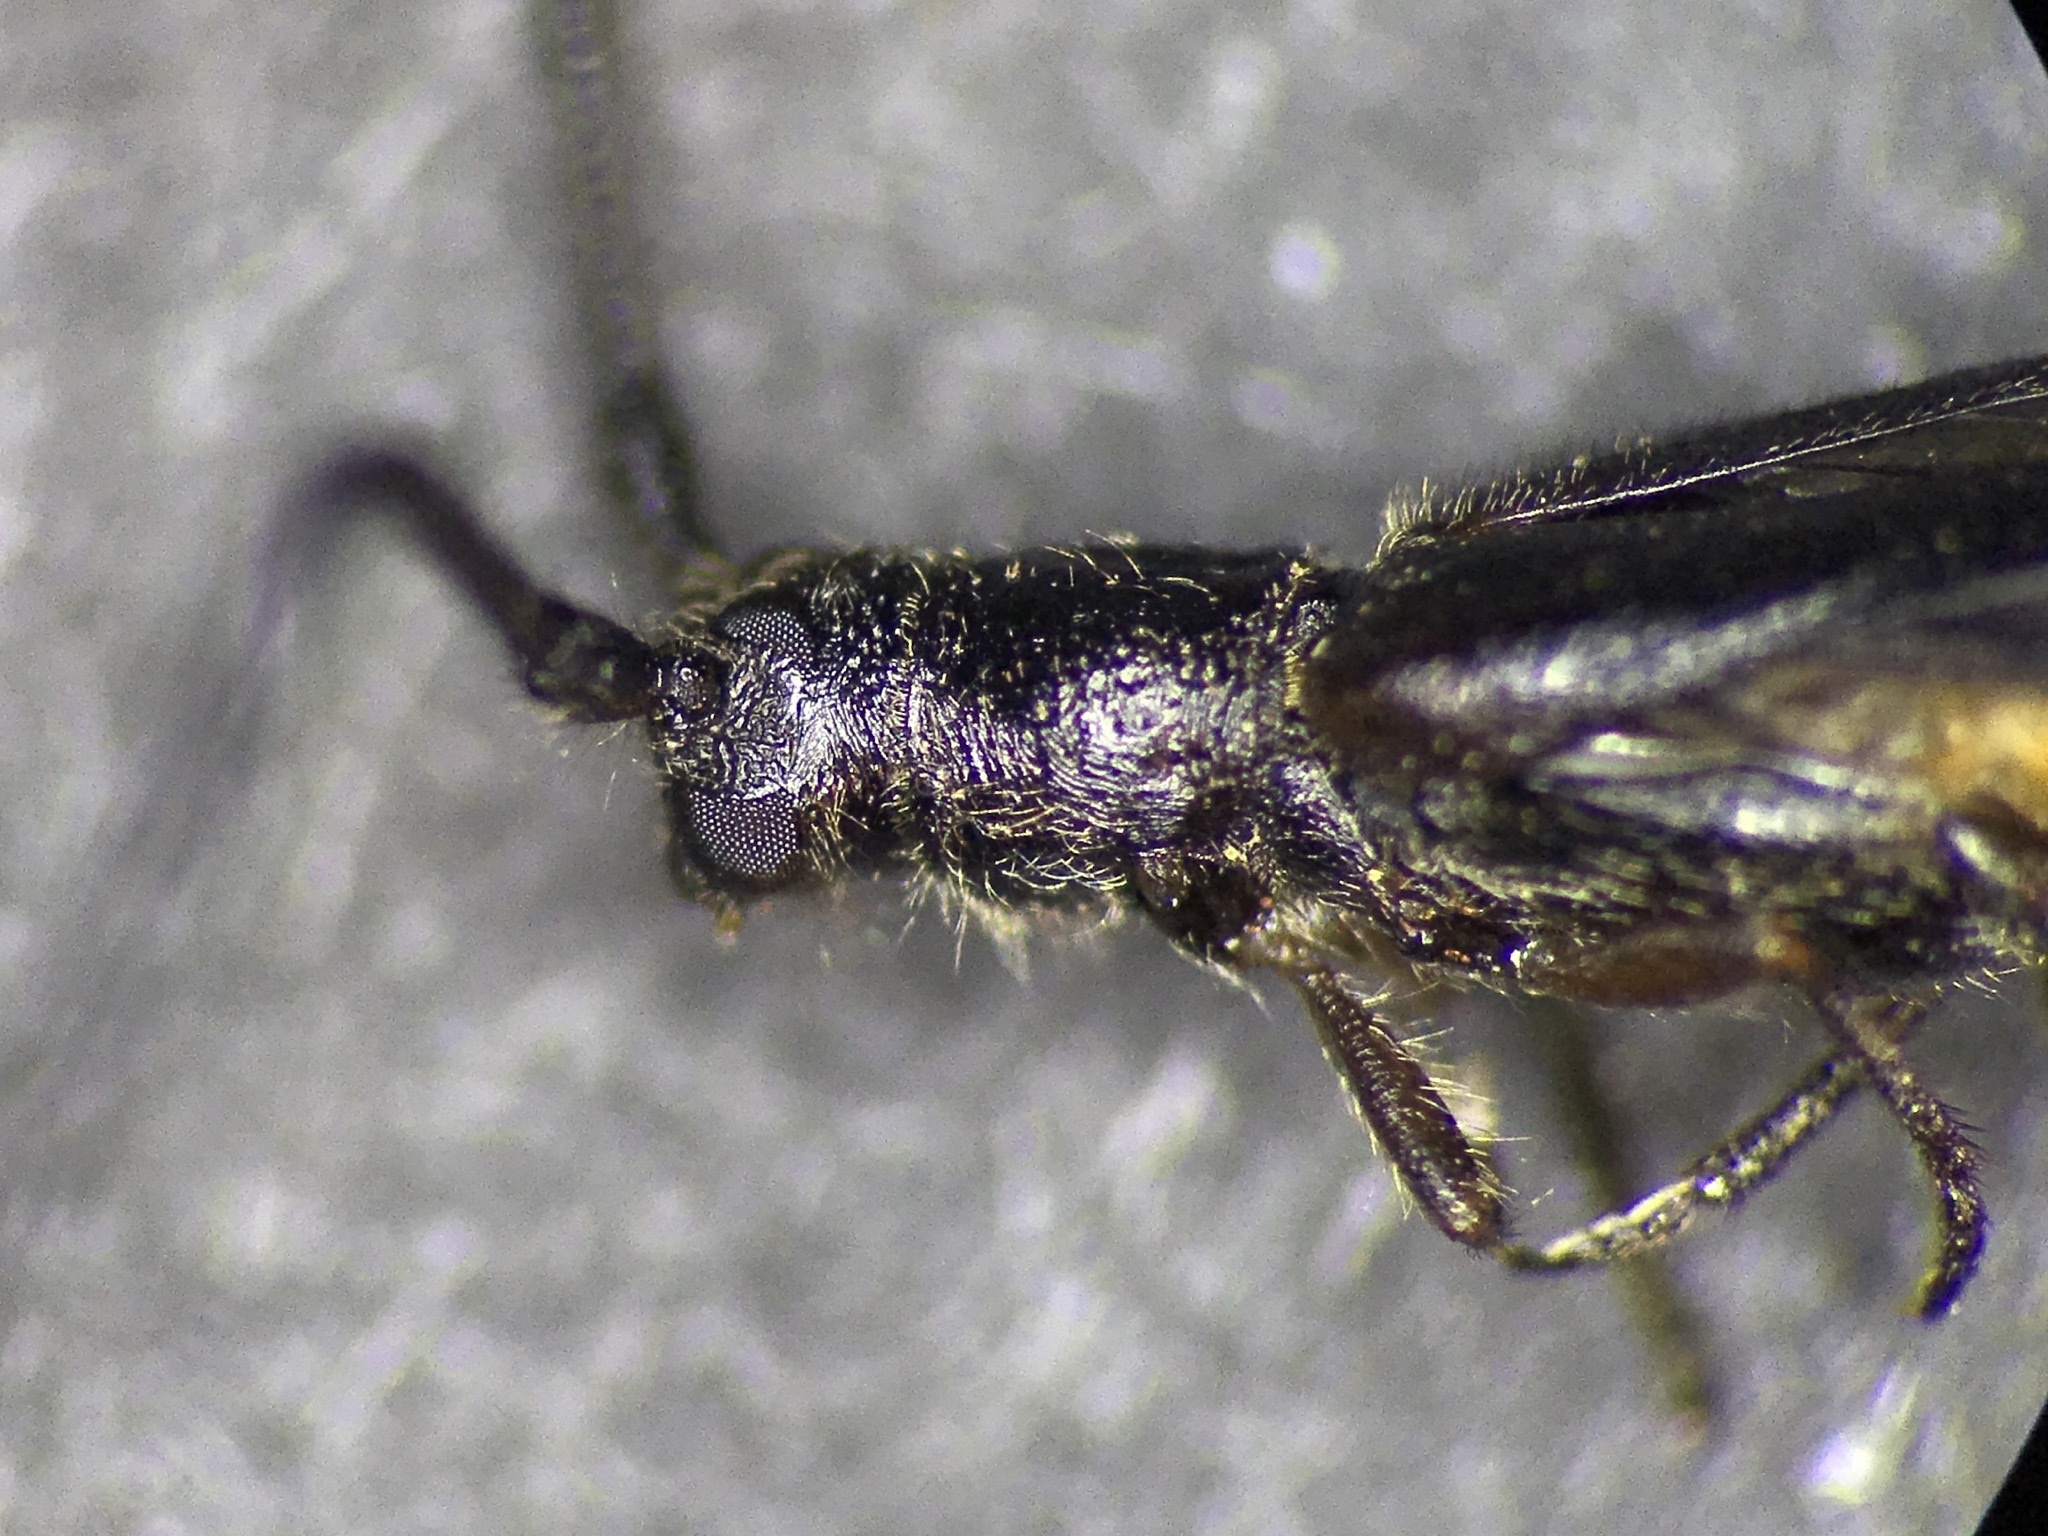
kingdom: Animalia
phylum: Arthropoda
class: Insecta
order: Coleoptera
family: Cerambycidae
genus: Methia
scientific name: Methia
